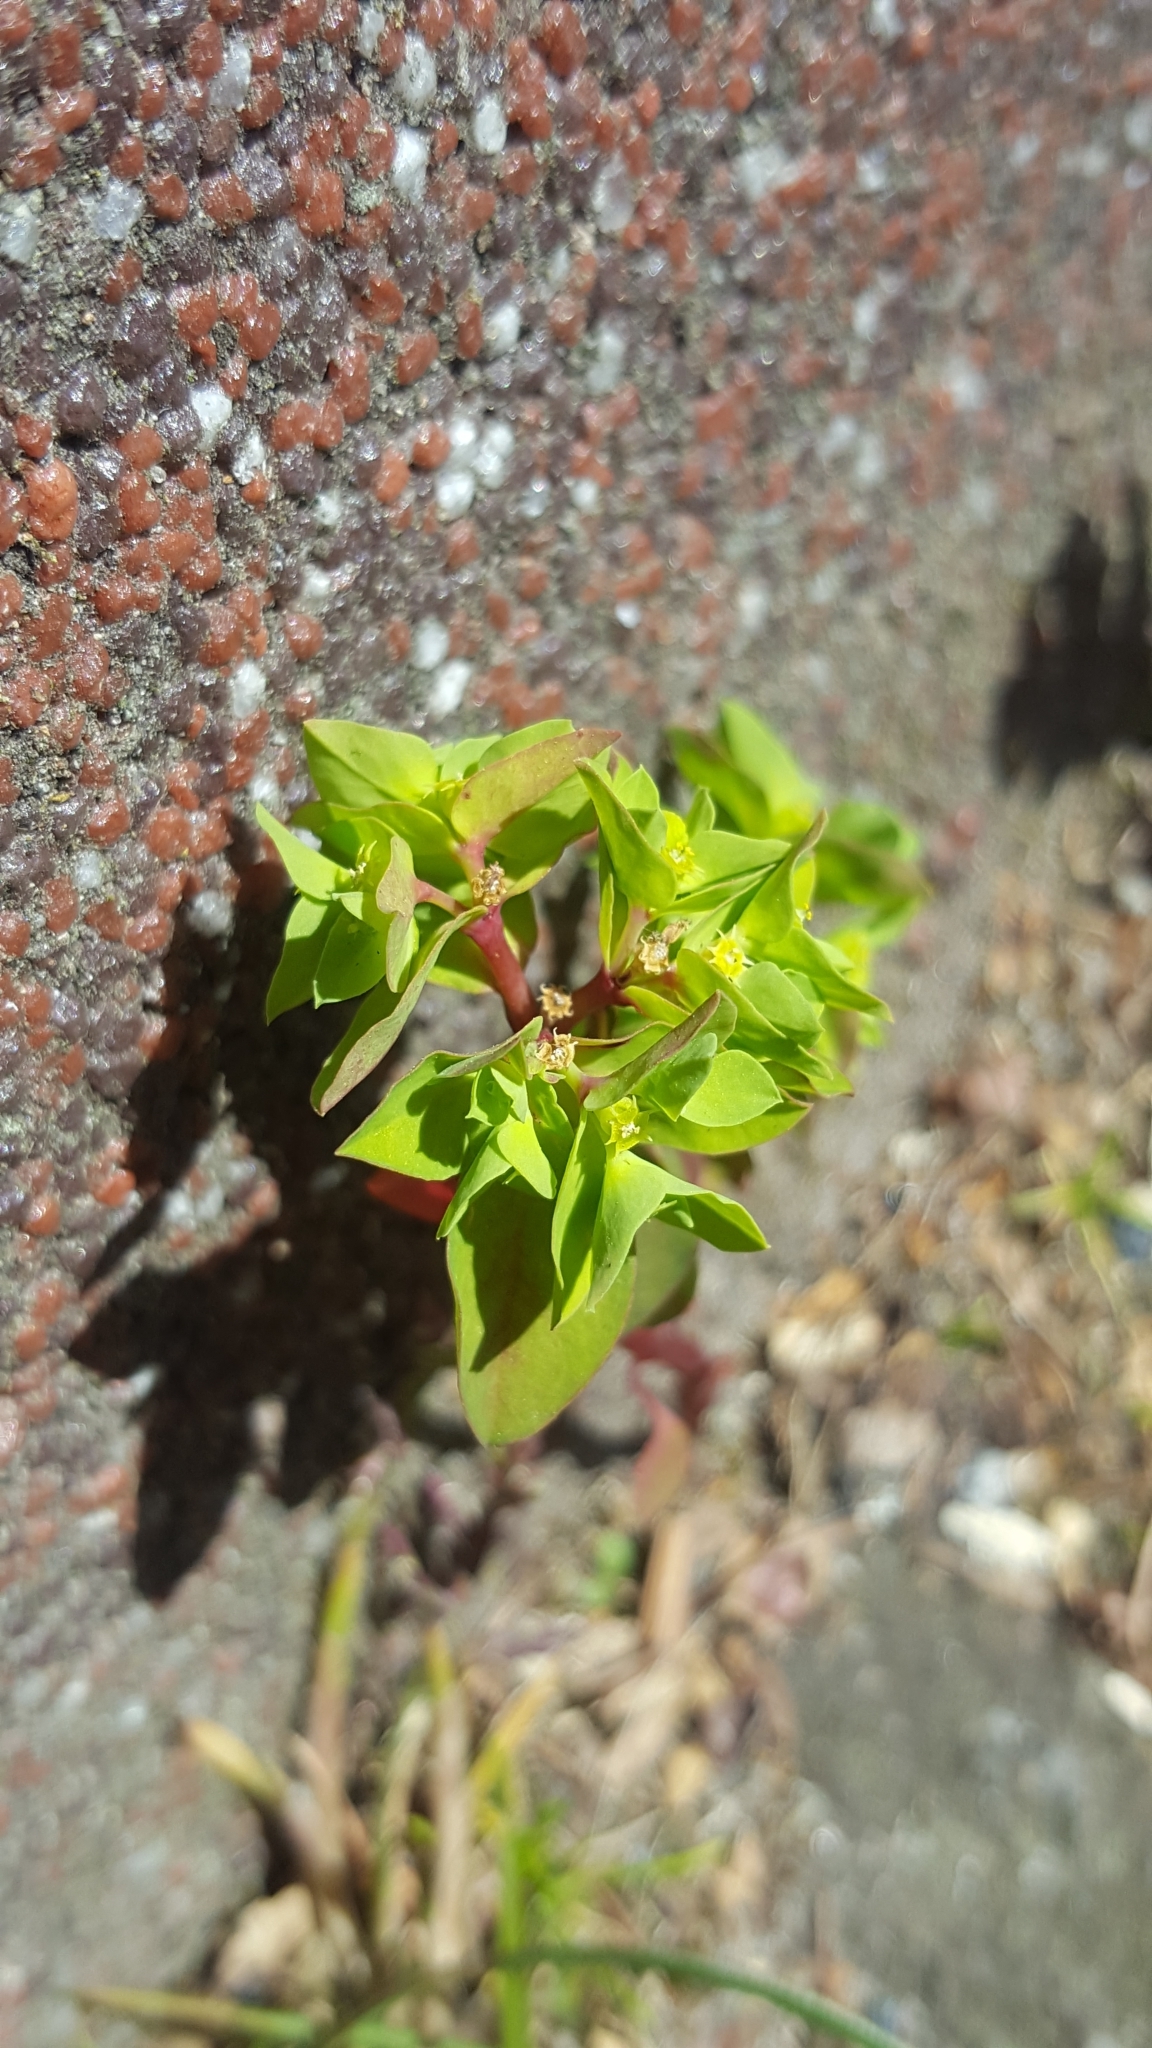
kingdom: Plantae
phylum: Tracheophyta
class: Magnoliopsida
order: Malpighiales
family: Euphorbiaceae
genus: Euphorbia
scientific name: Euphorbia peplus
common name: Petty spurge
